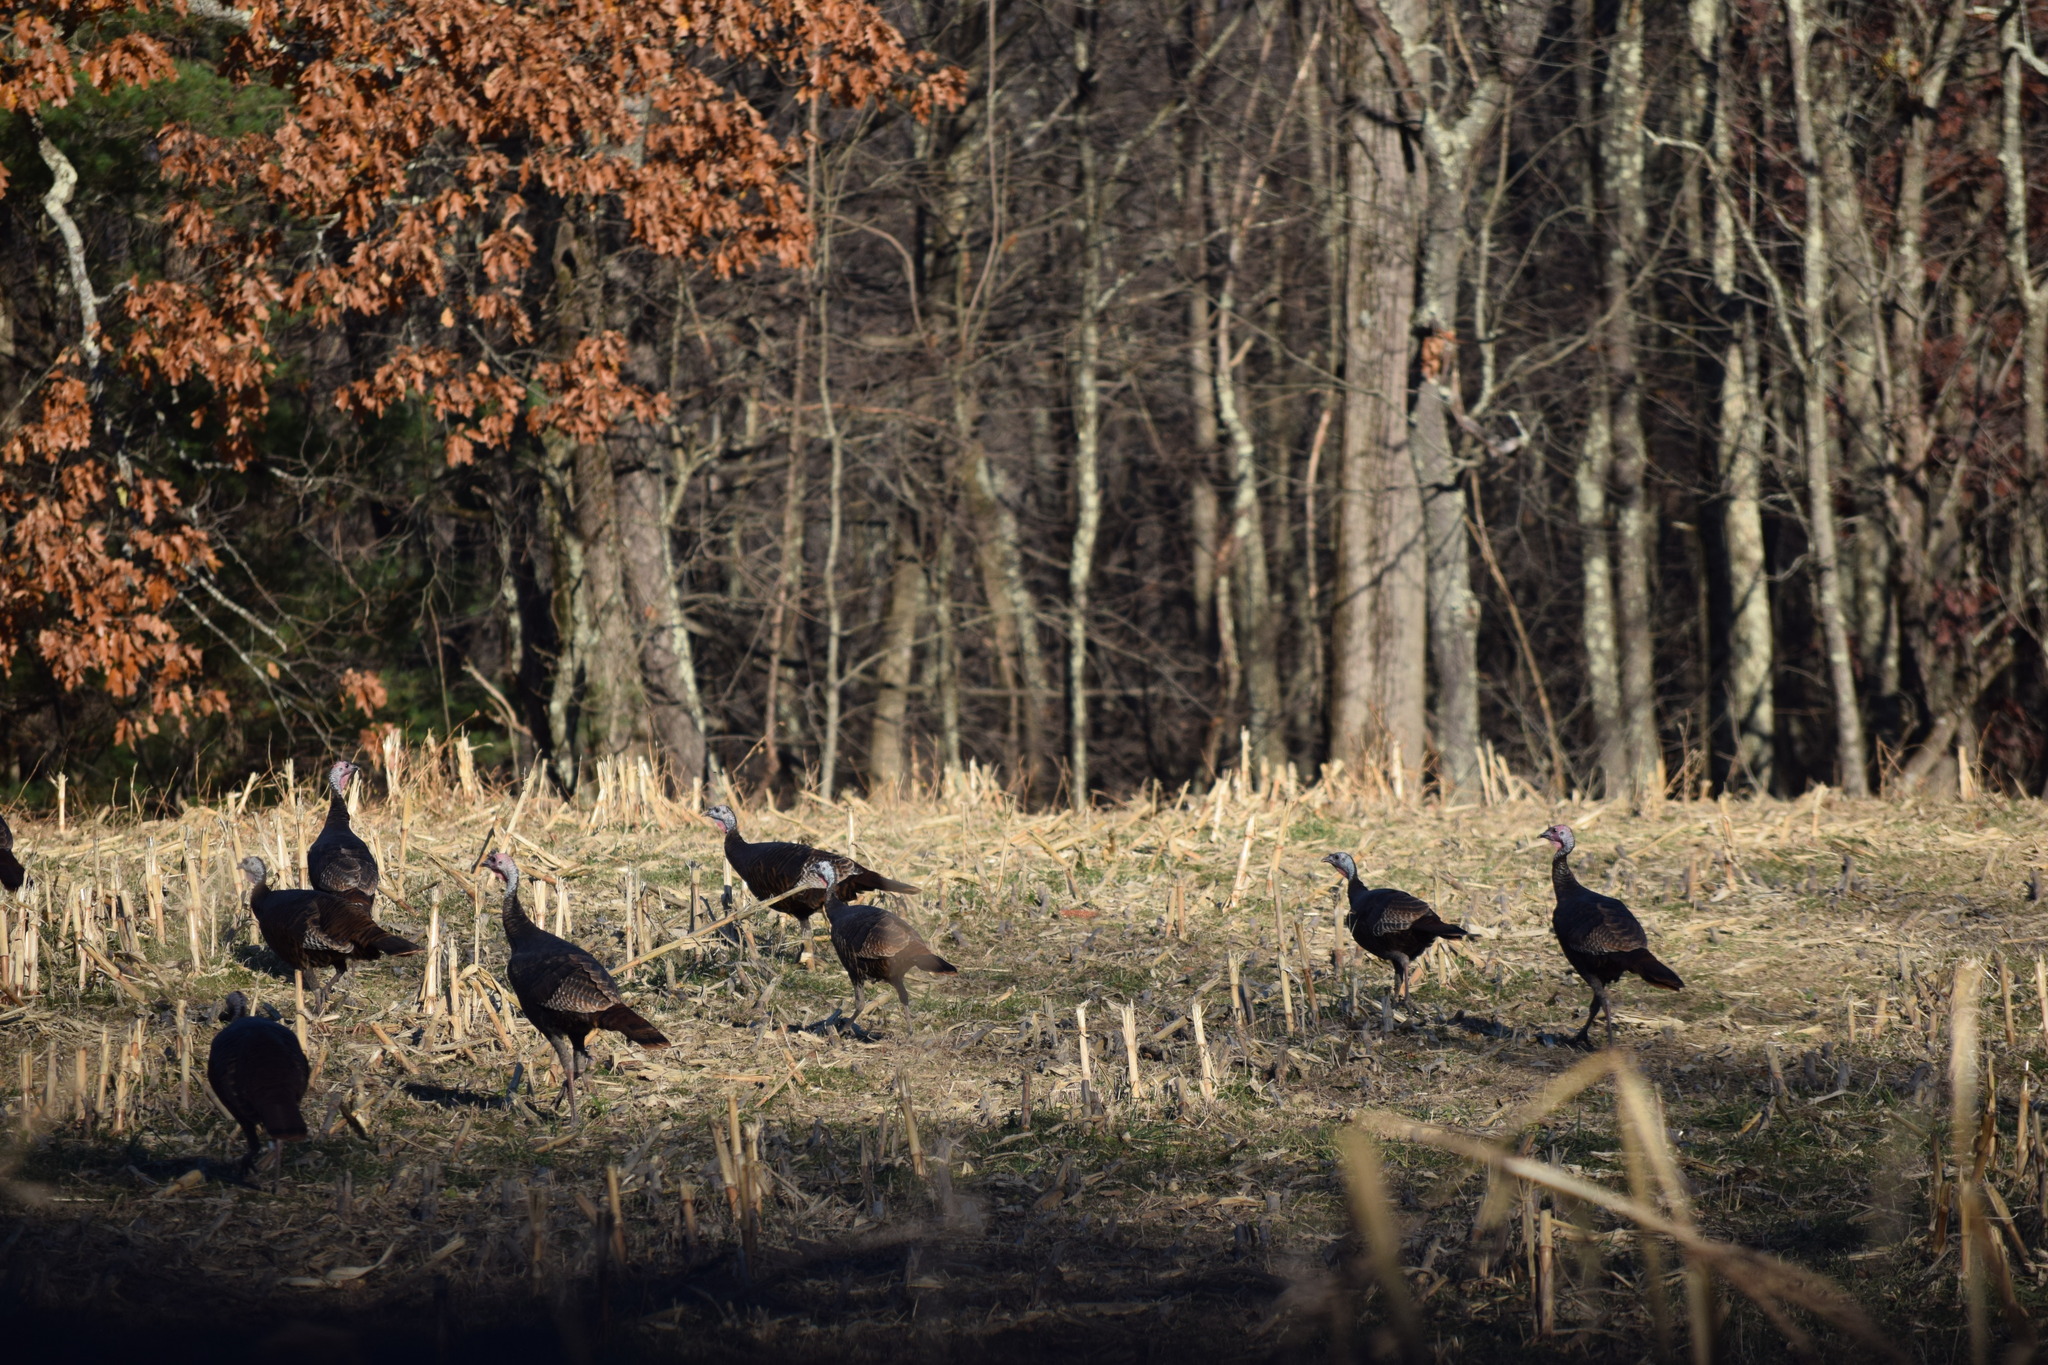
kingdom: Animalia
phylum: Chordata
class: Aves
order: Galliformes
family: Phasianidae
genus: Meleagris
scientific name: Meleagris gallopavo
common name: Wild turkey
